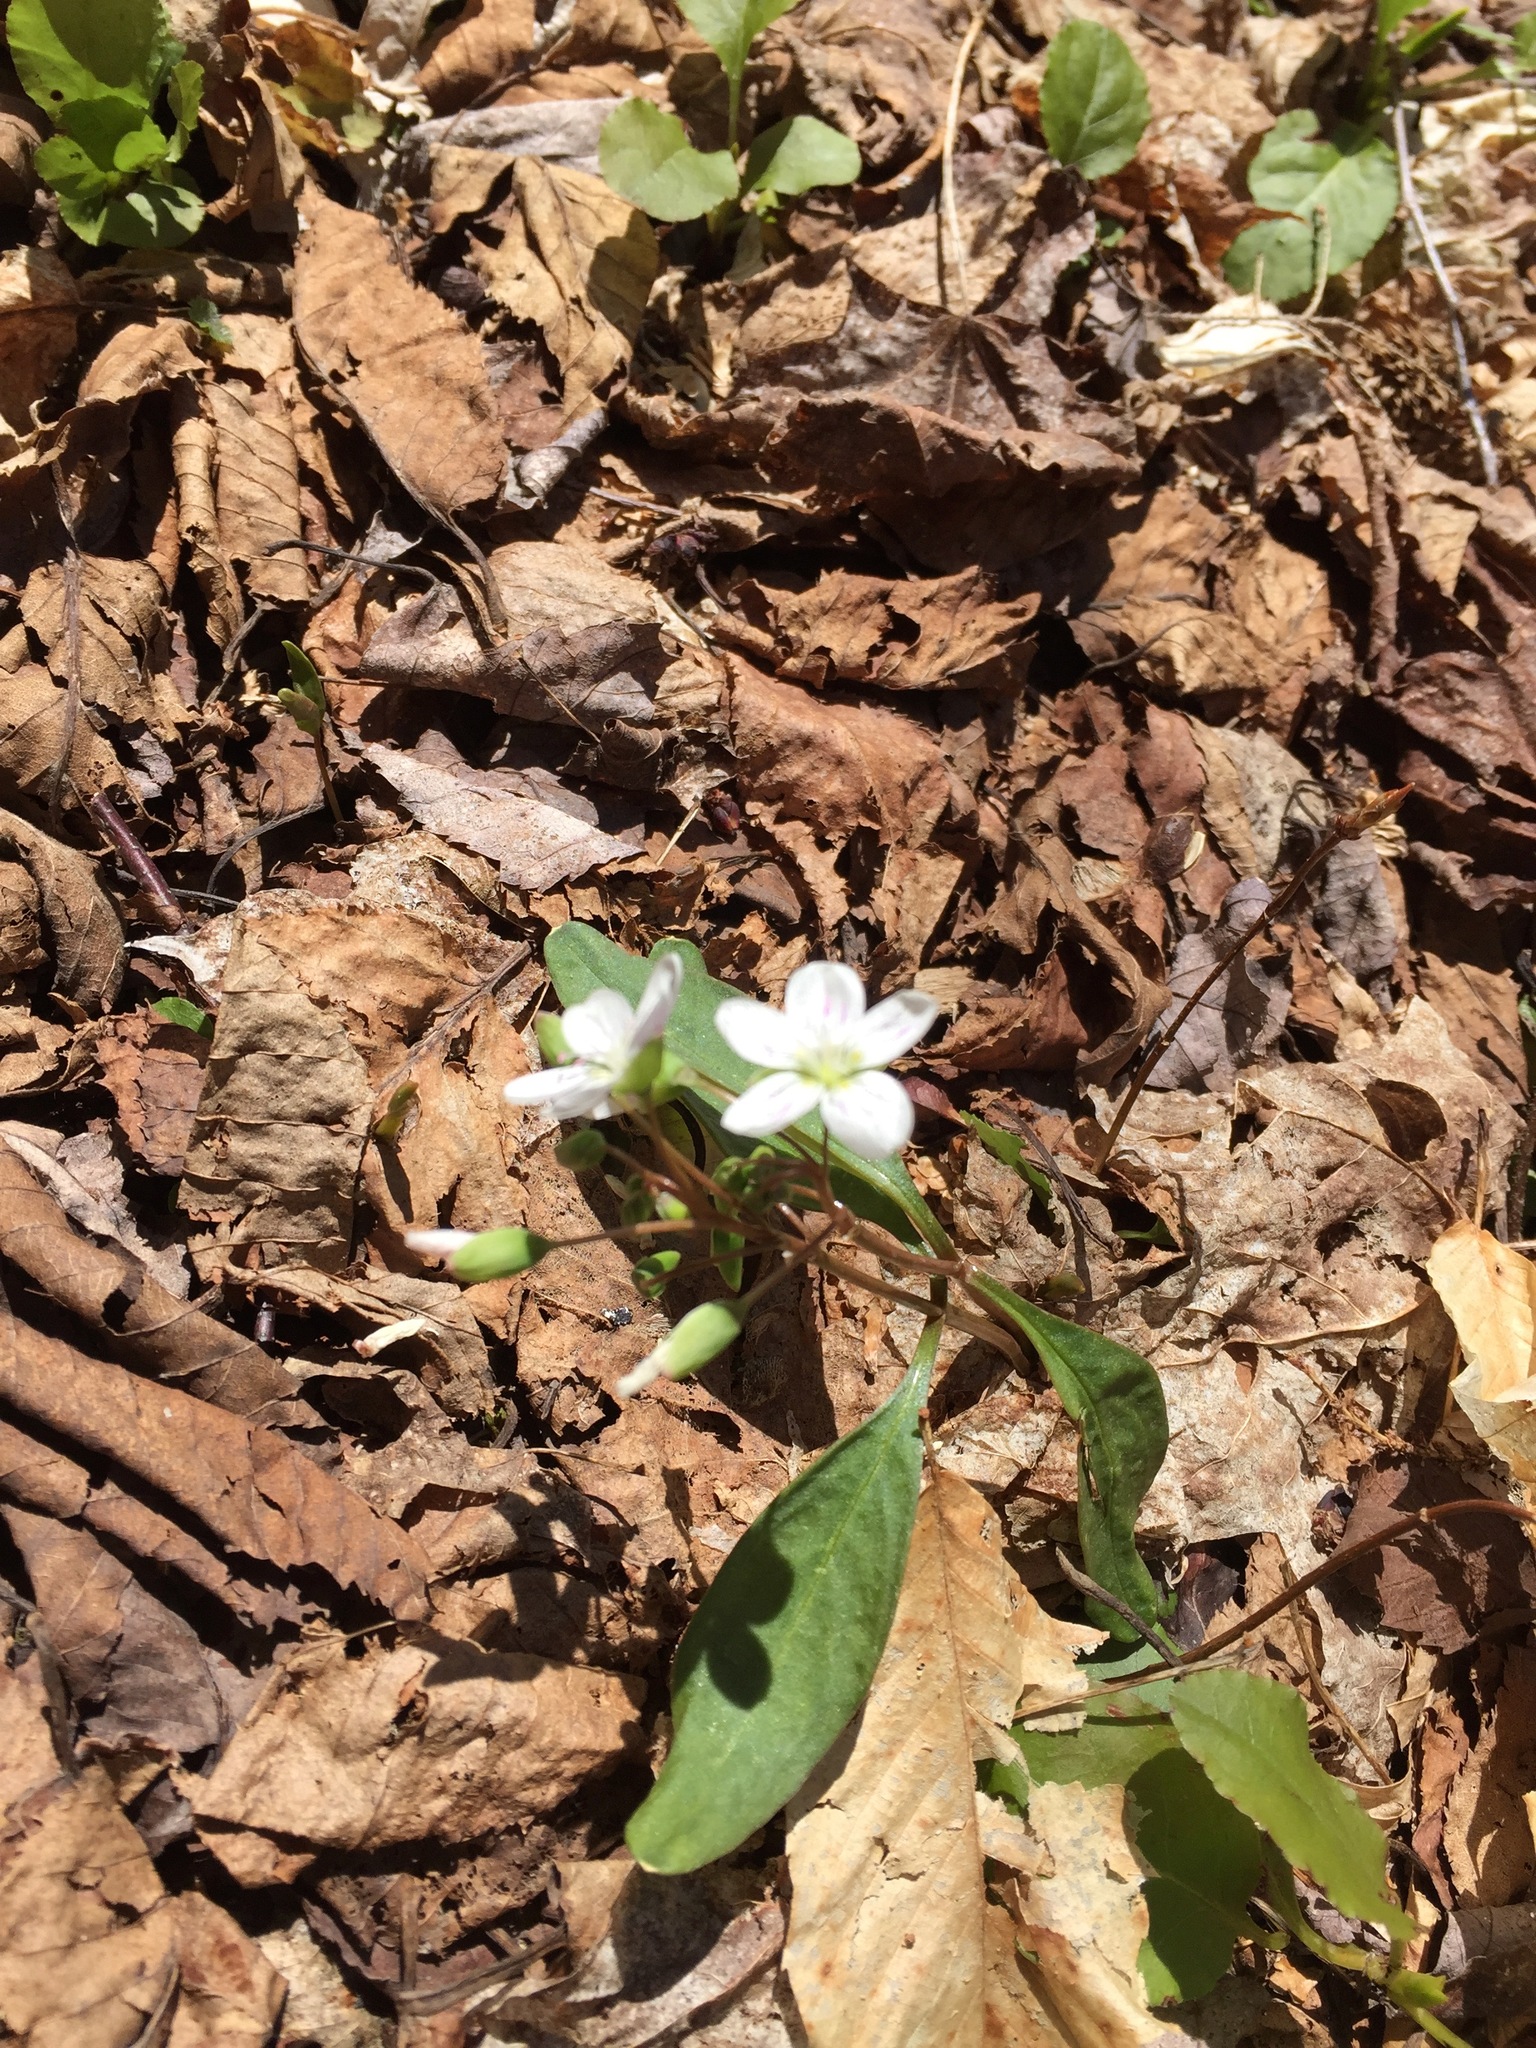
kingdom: Plantae
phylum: Tracheophyta
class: Magnoliopsida
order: Caryophyllales
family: Montiaceae
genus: Claytonia
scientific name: Claytonia caroliniana
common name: Carolina spring beauty
